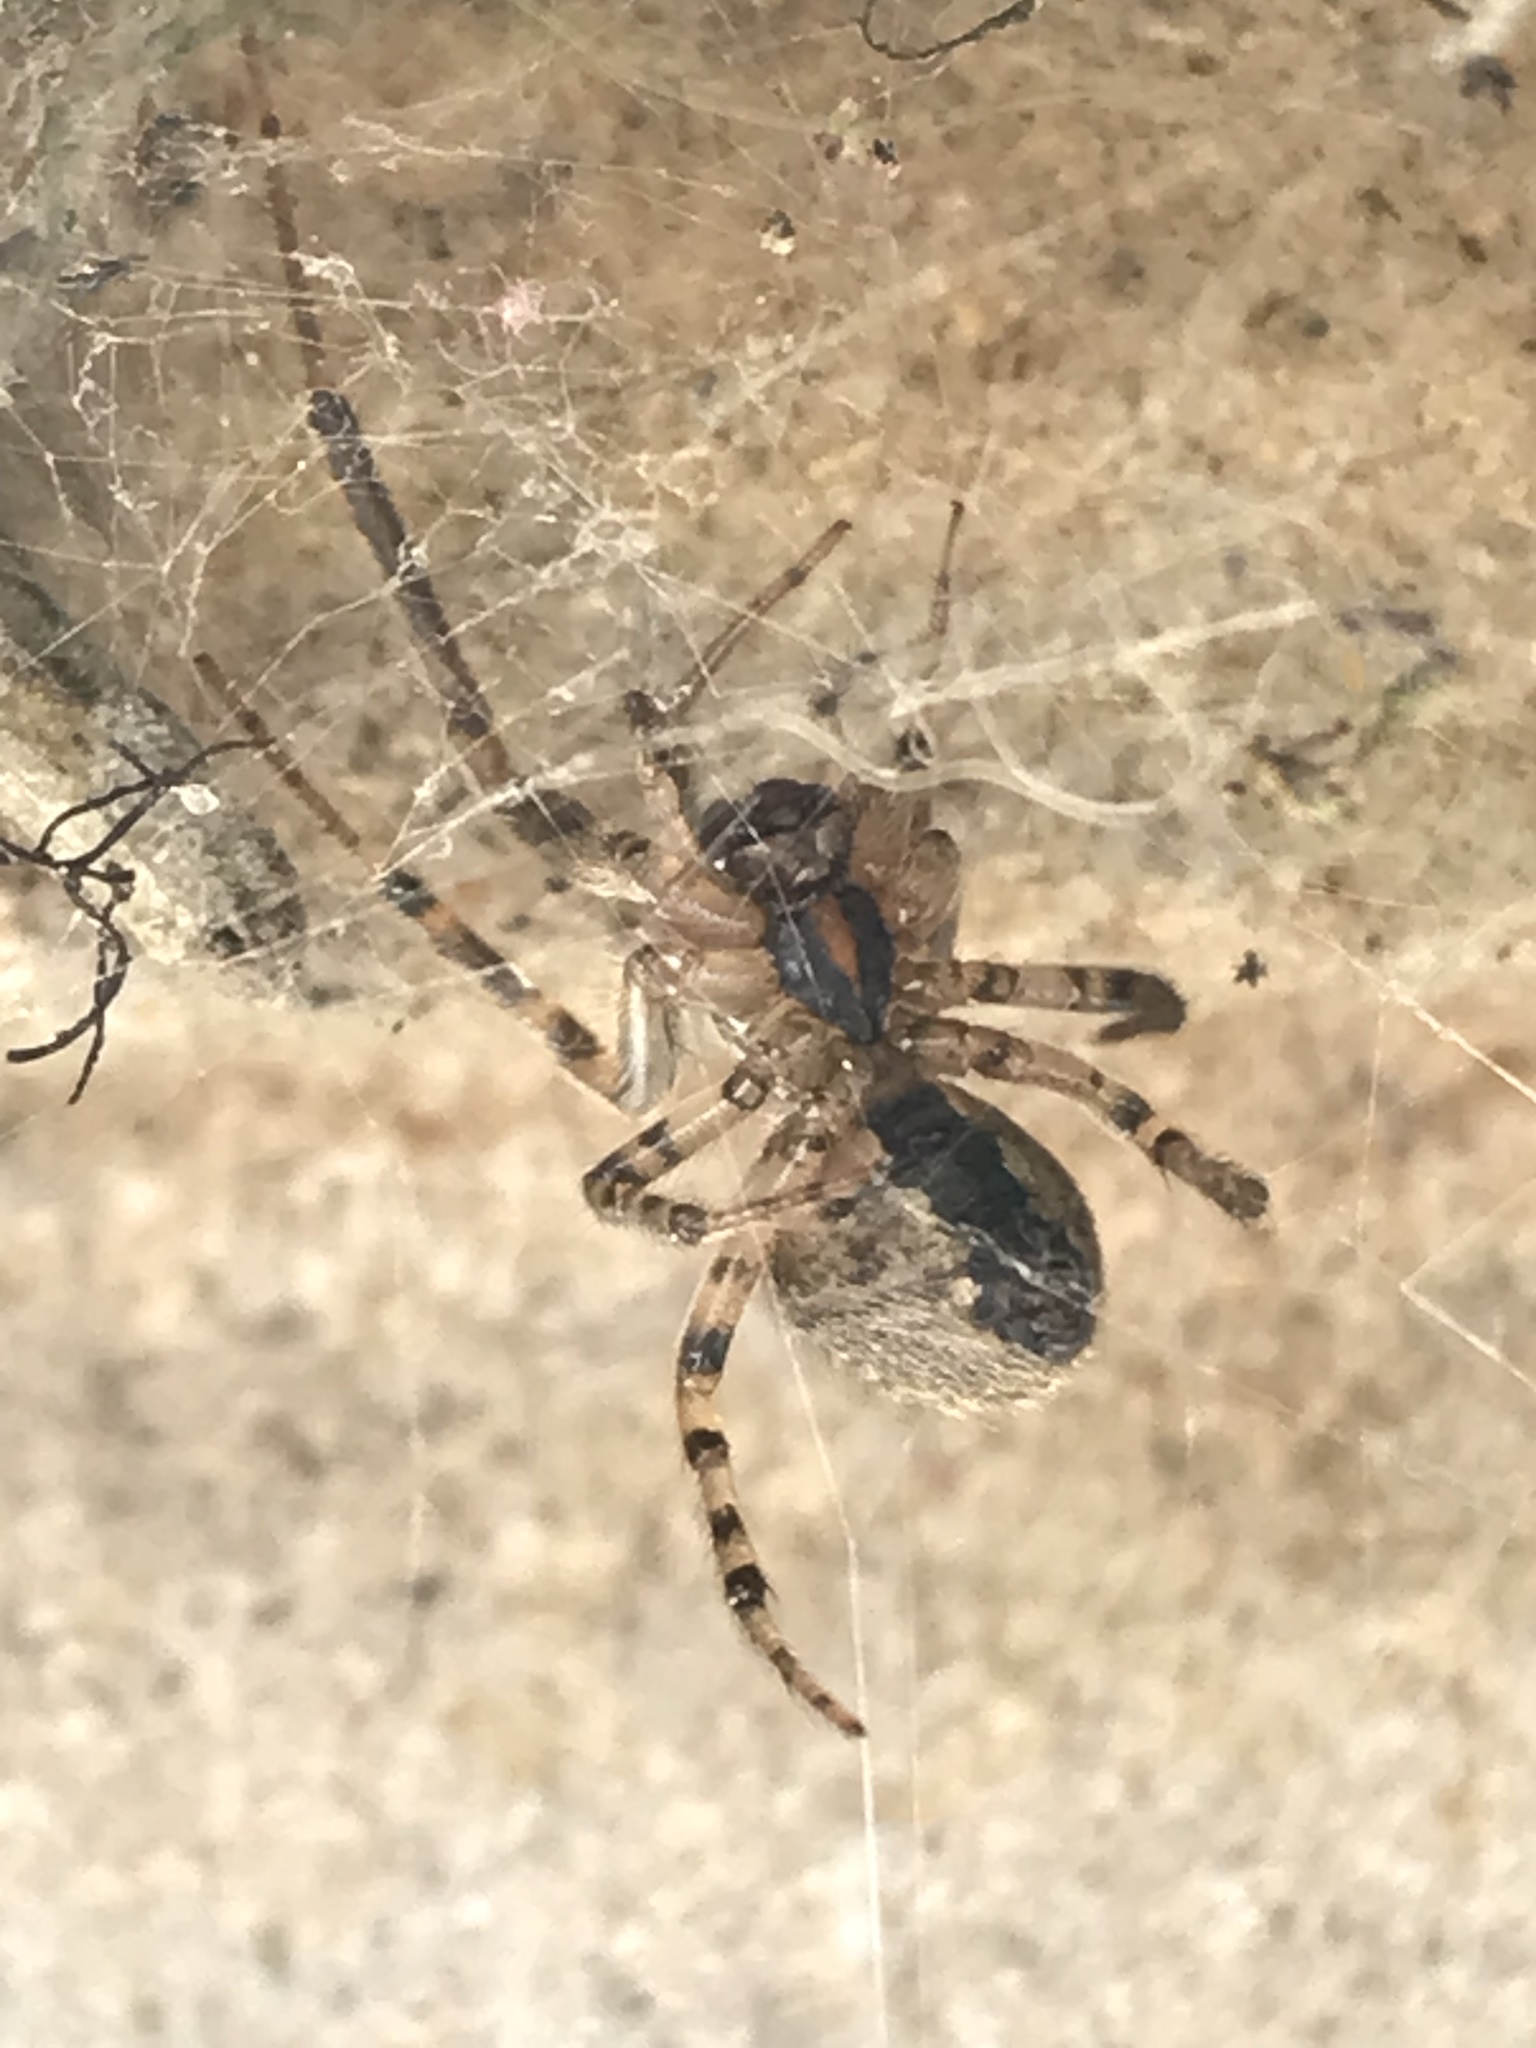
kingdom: Animalia
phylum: Arthropoda
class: Arachnida
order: Araneae
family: Araneidae
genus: Zygiella
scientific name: Zygiella x-notata
